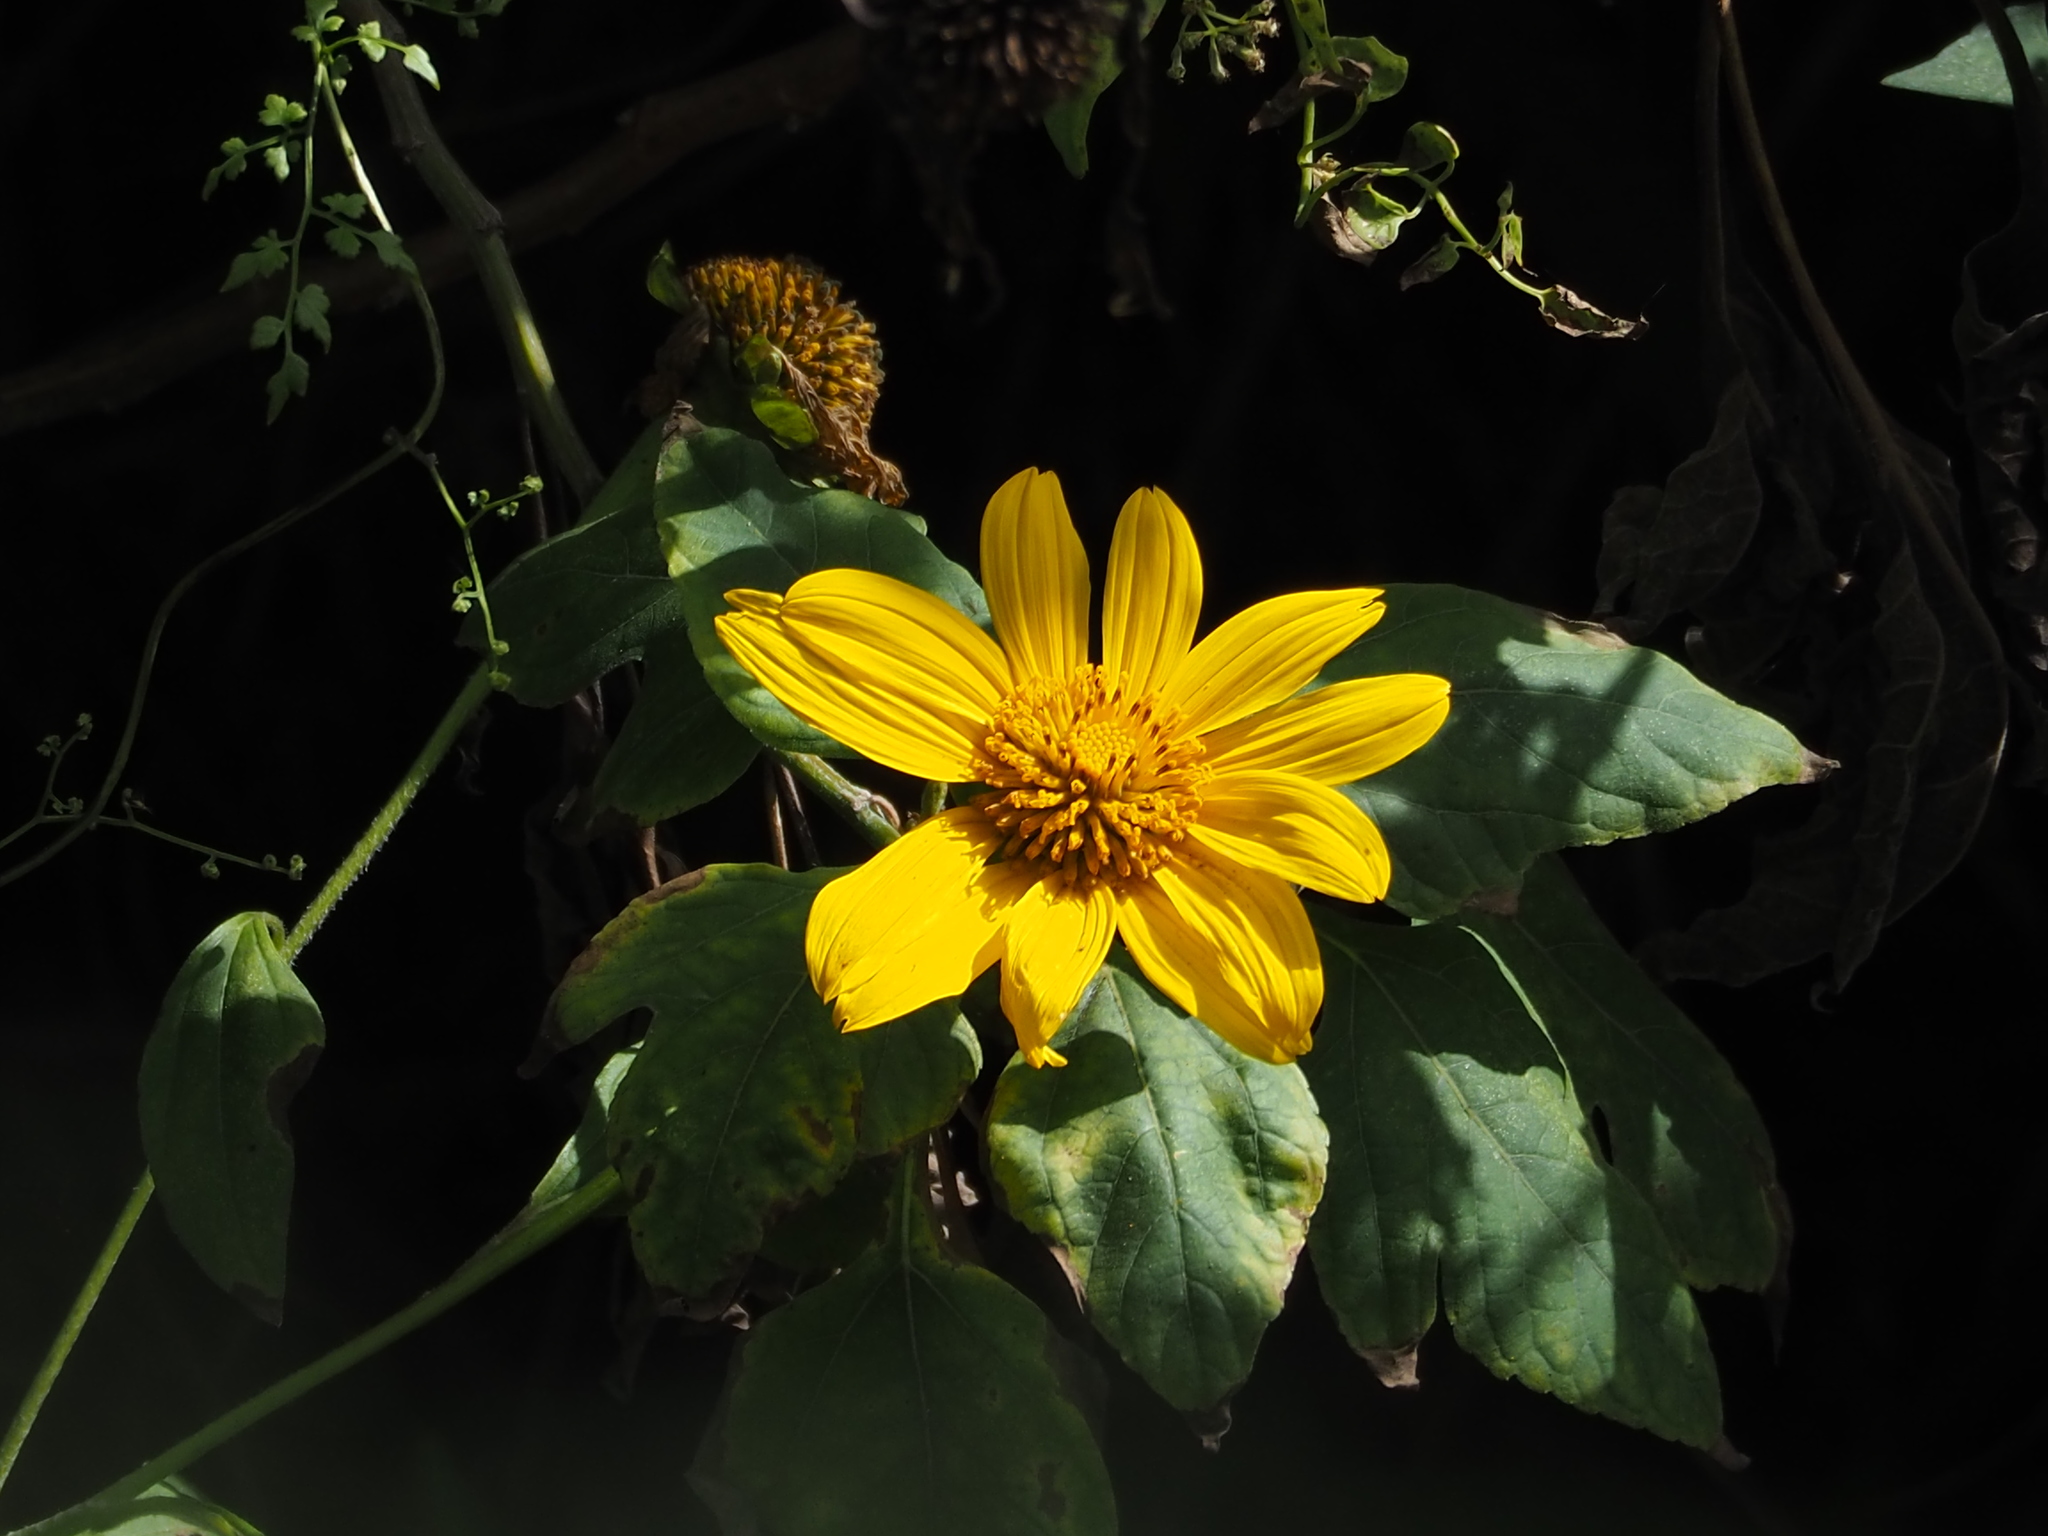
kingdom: Plantae
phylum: Tracheophyta
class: Magnoliopsida
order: Asterales
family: Asteraceae
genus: Tithonia
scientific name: Tithonia diversifolia
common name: Tree marigold
